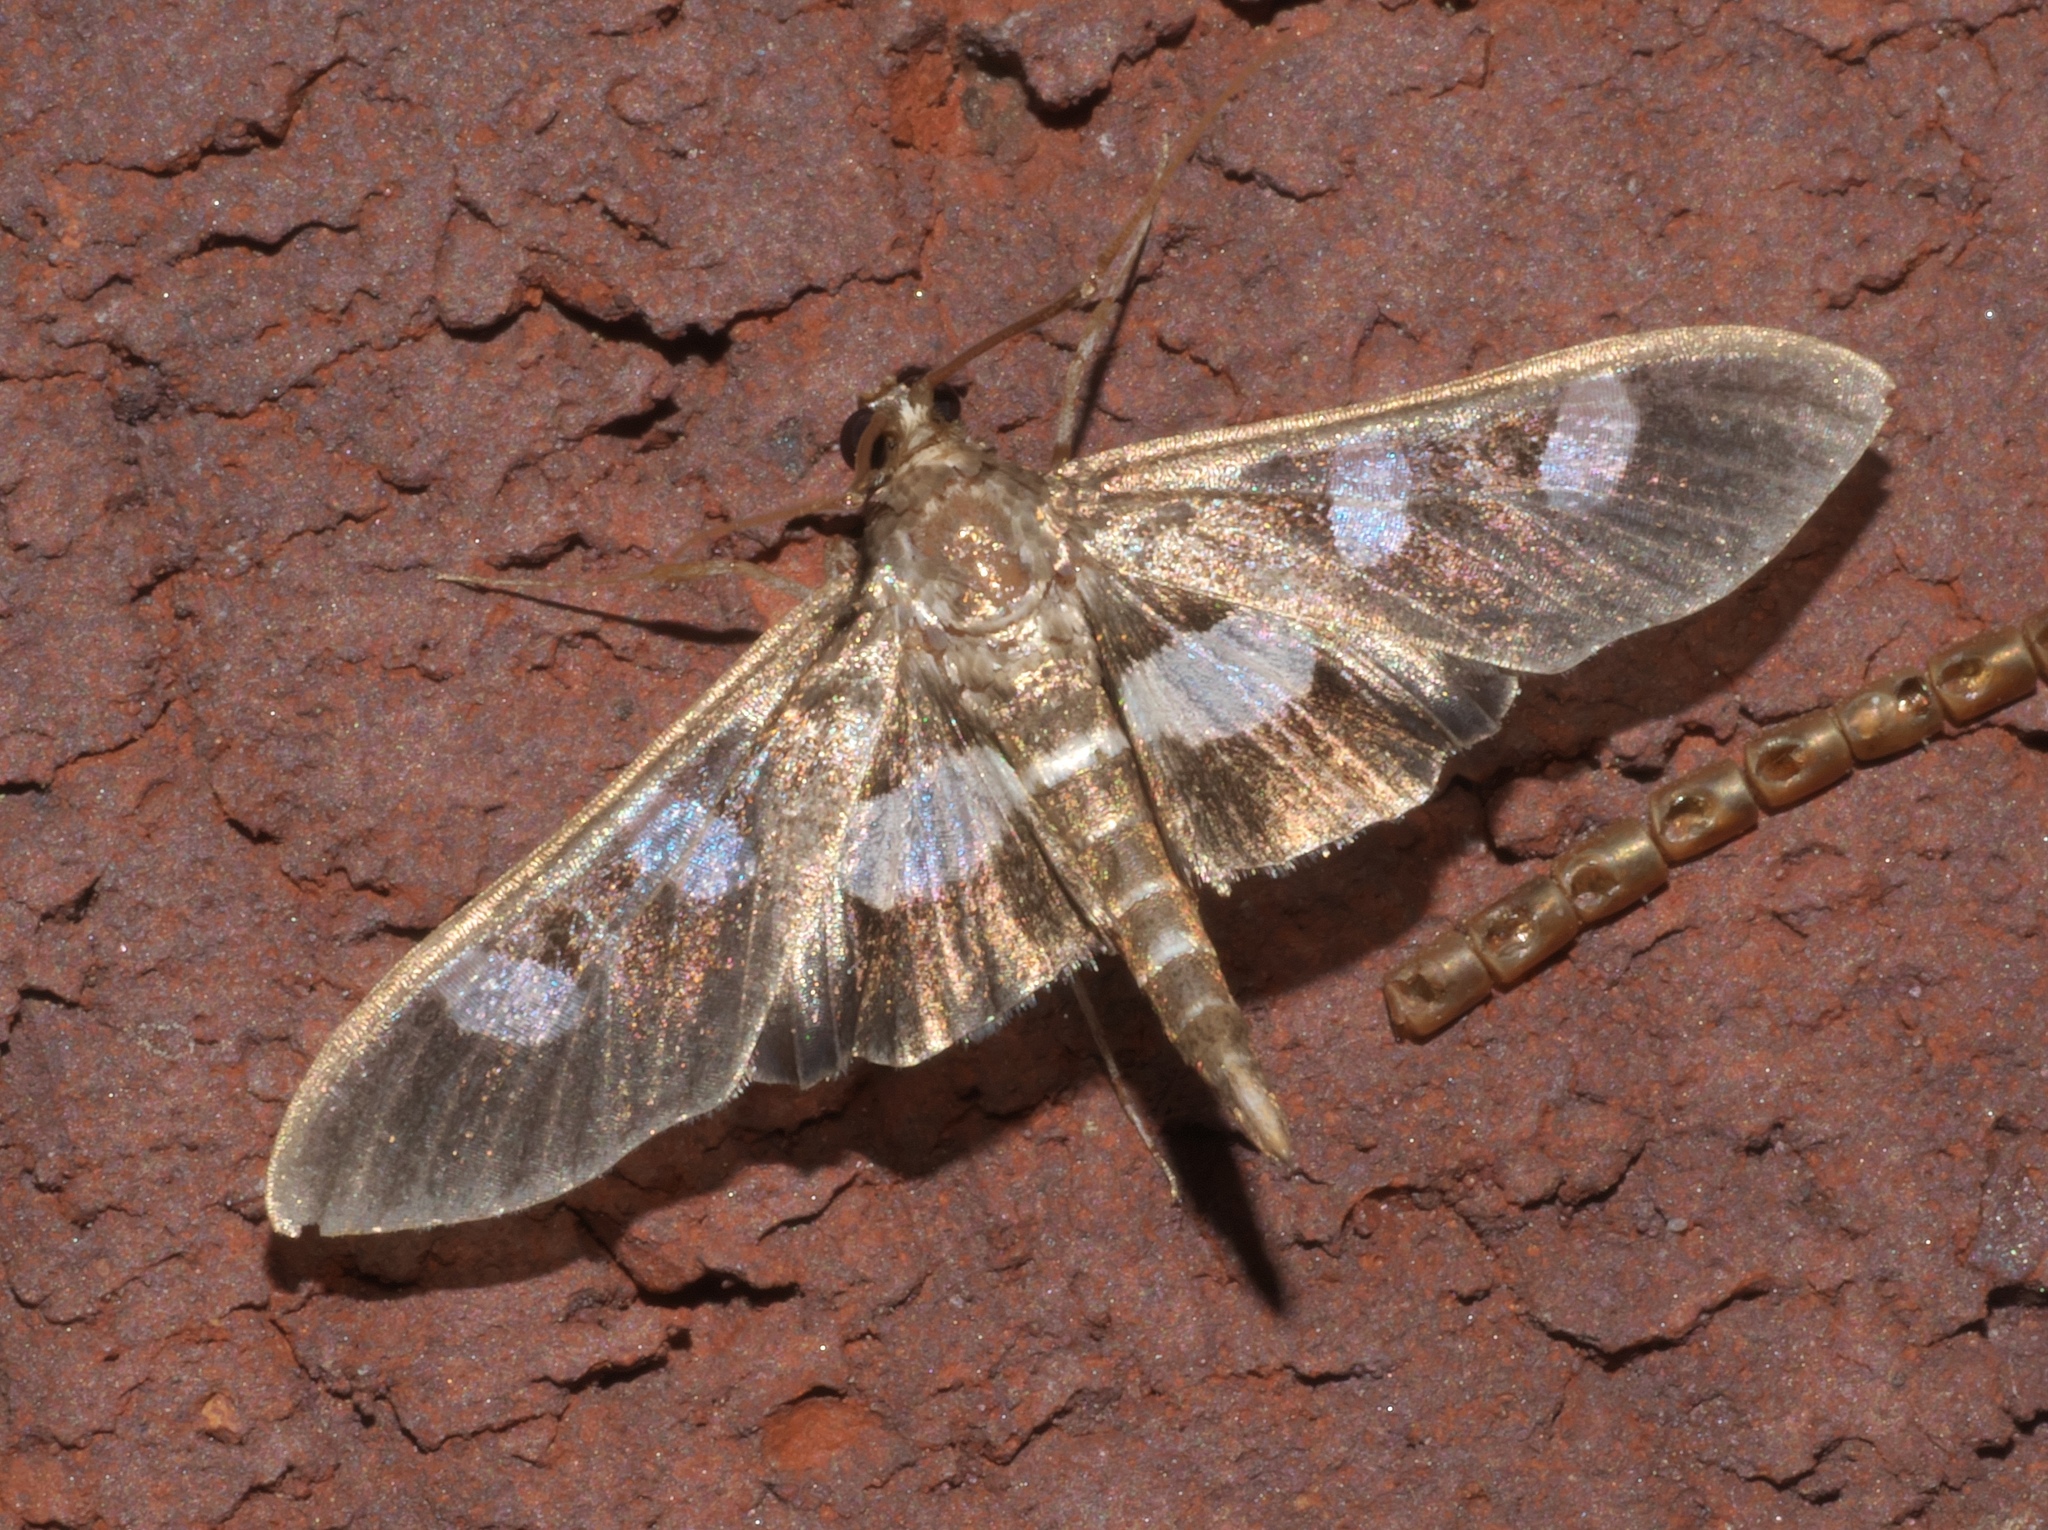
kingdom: Animalia
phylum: Arthropoda
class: Insecta
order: Lepidoptera
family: Crambidae
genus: Desmia
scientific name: Desmia
